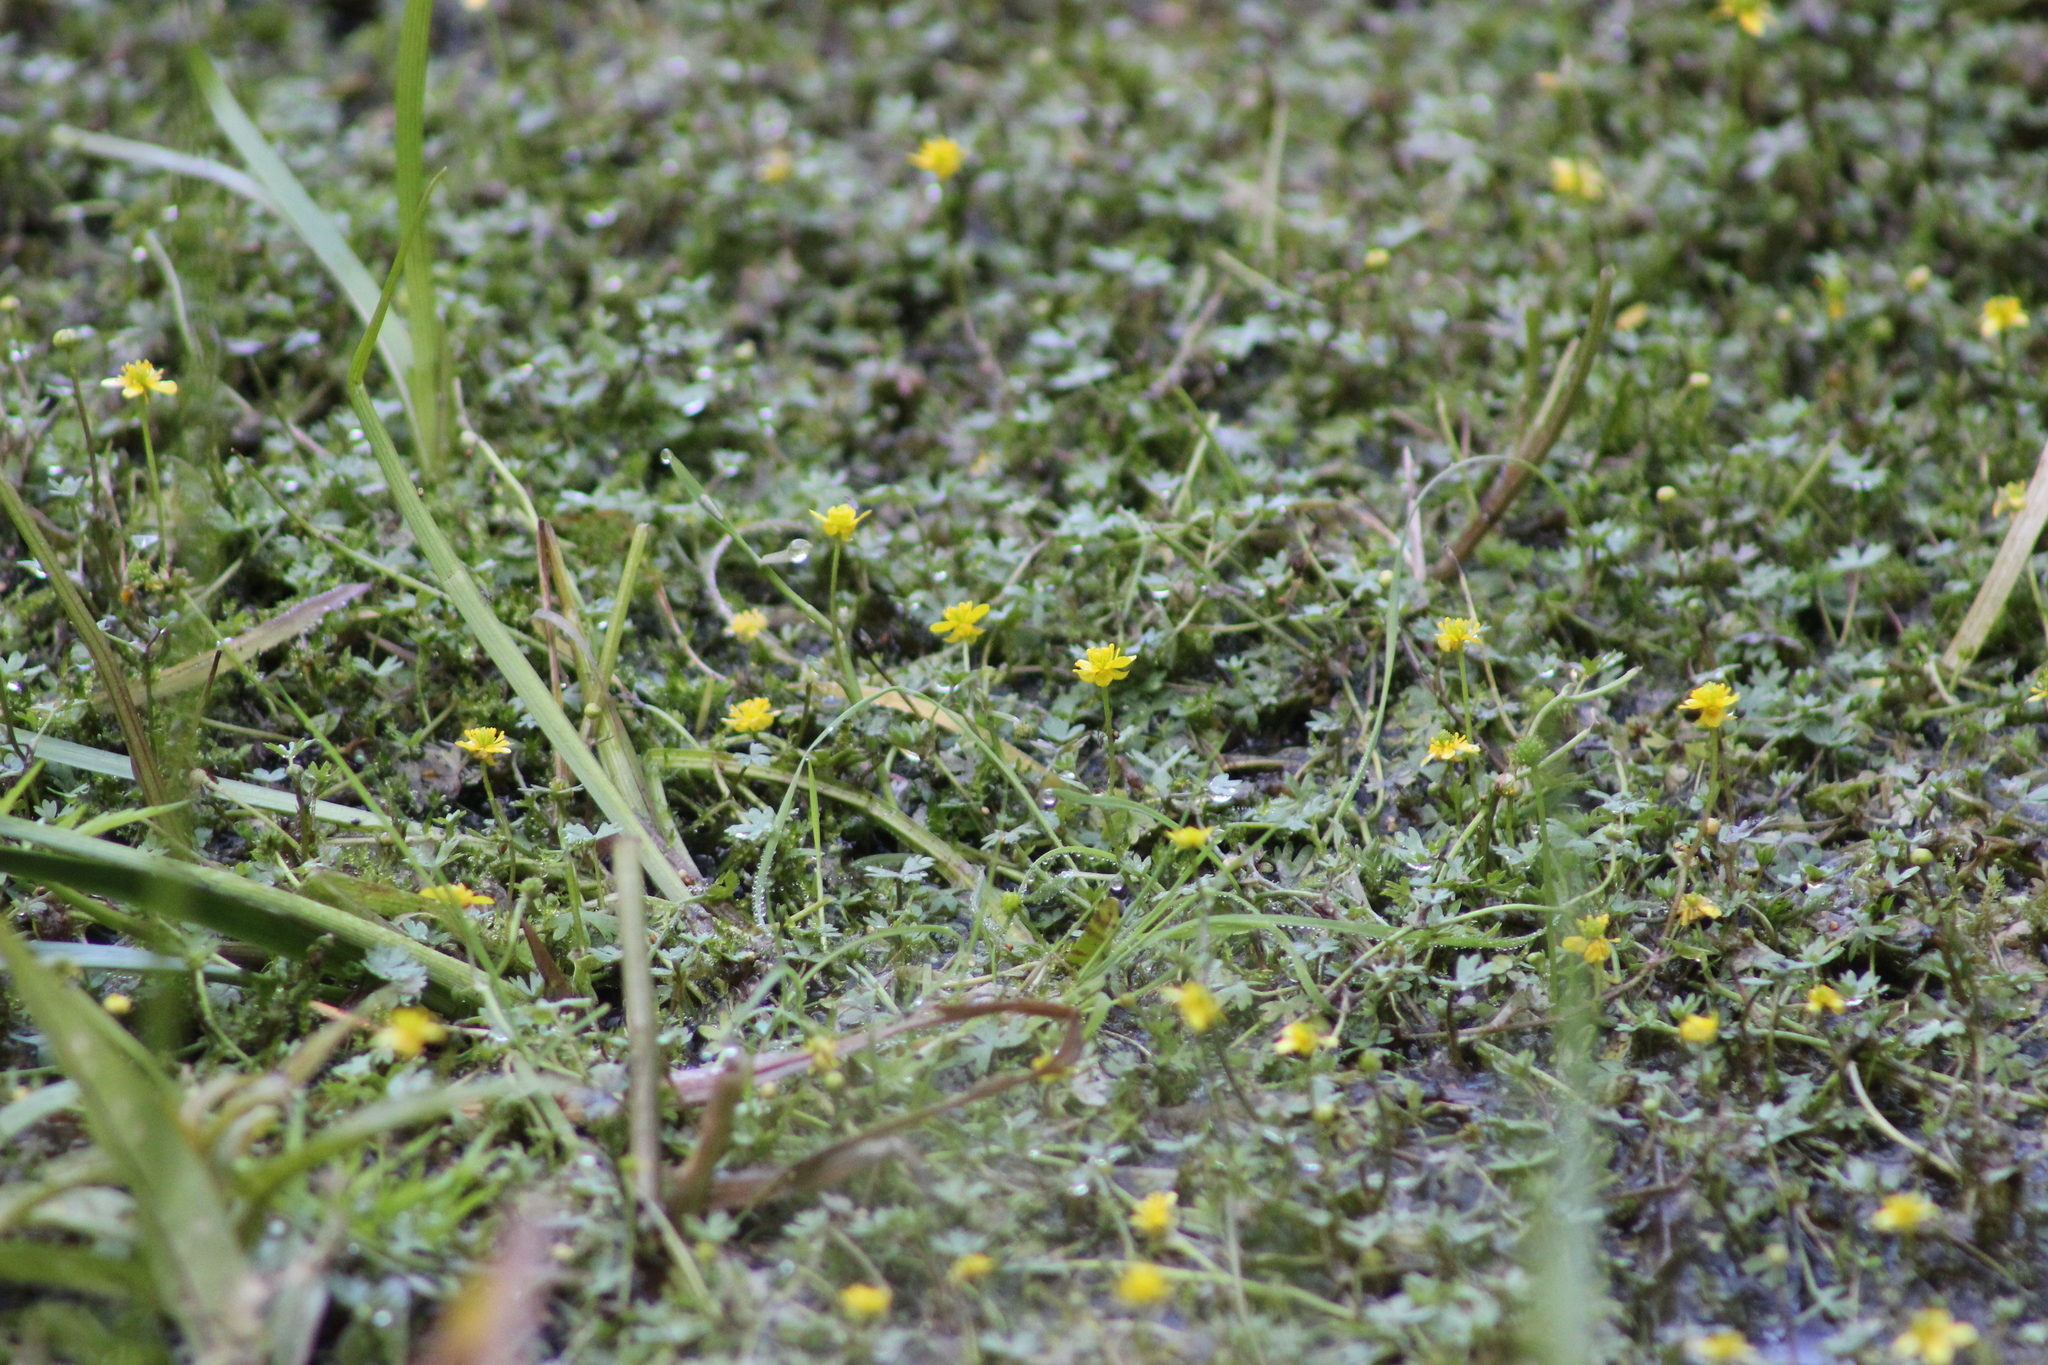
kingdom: Plantae
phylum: Tracheophyta
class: Magnoliopsida
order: Ranunculales
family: Ranunculaceae
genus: Ranunculus
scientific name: Ranunculus gmelinii
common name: Gmelin's buttercup
